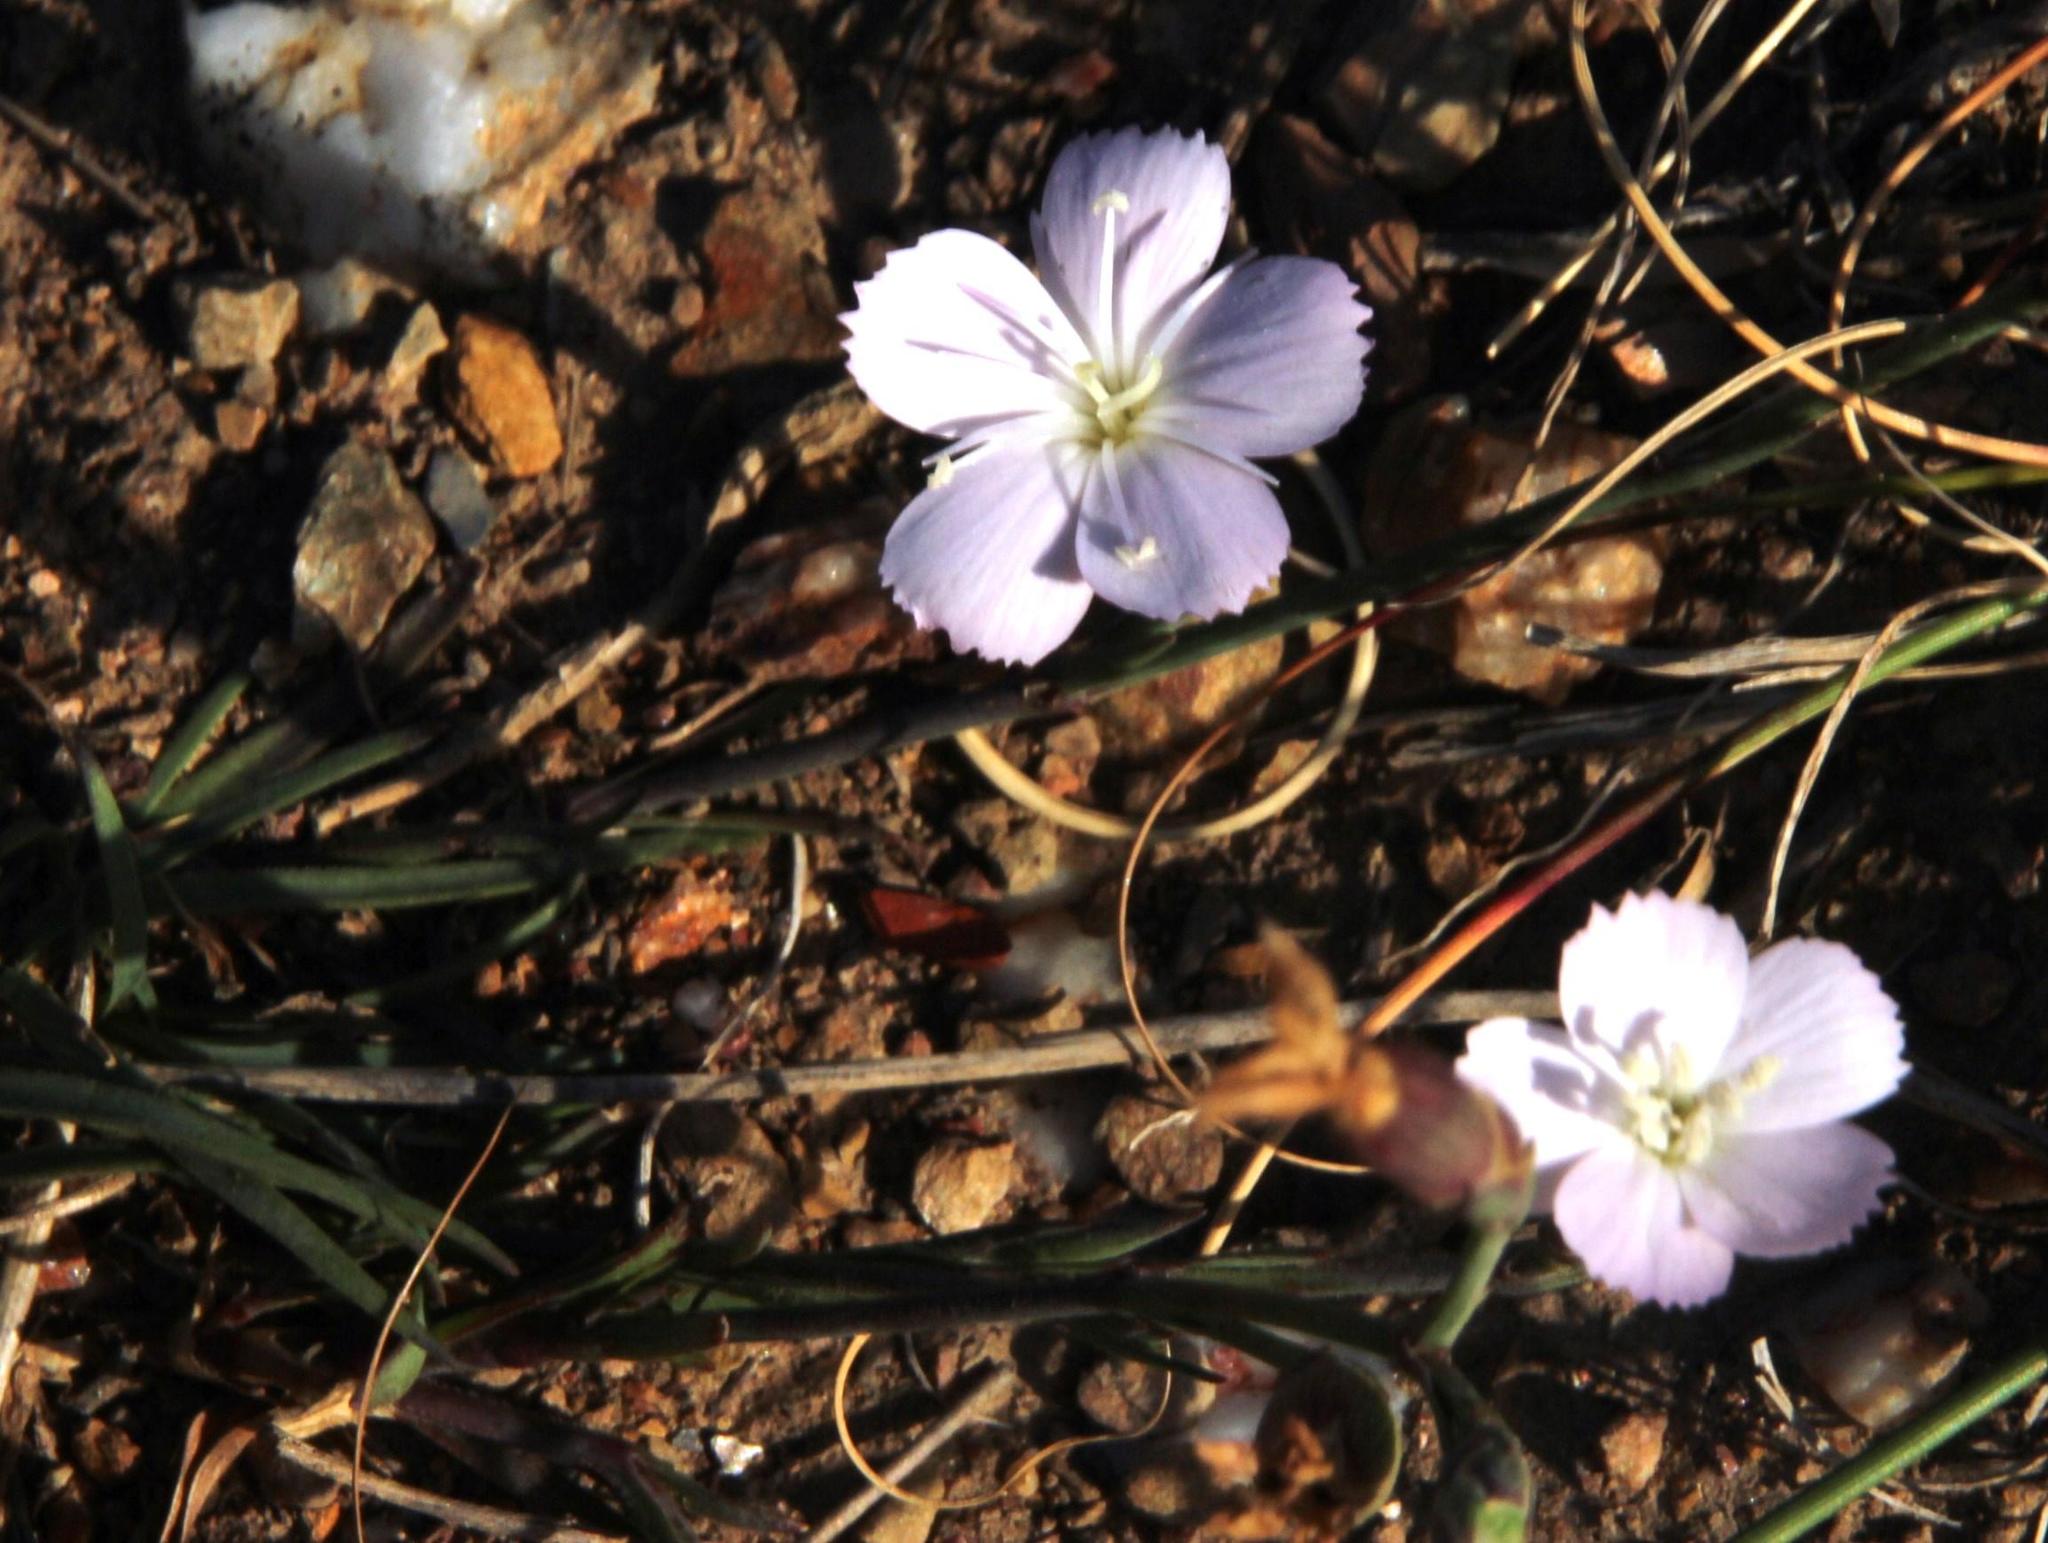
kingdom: Plantae
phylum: Tracheophyta
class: Magnoliopsida
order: Caryophyllales
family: Caryophyllaceae
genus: Dianthus
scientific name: Dianthus thunbergii
